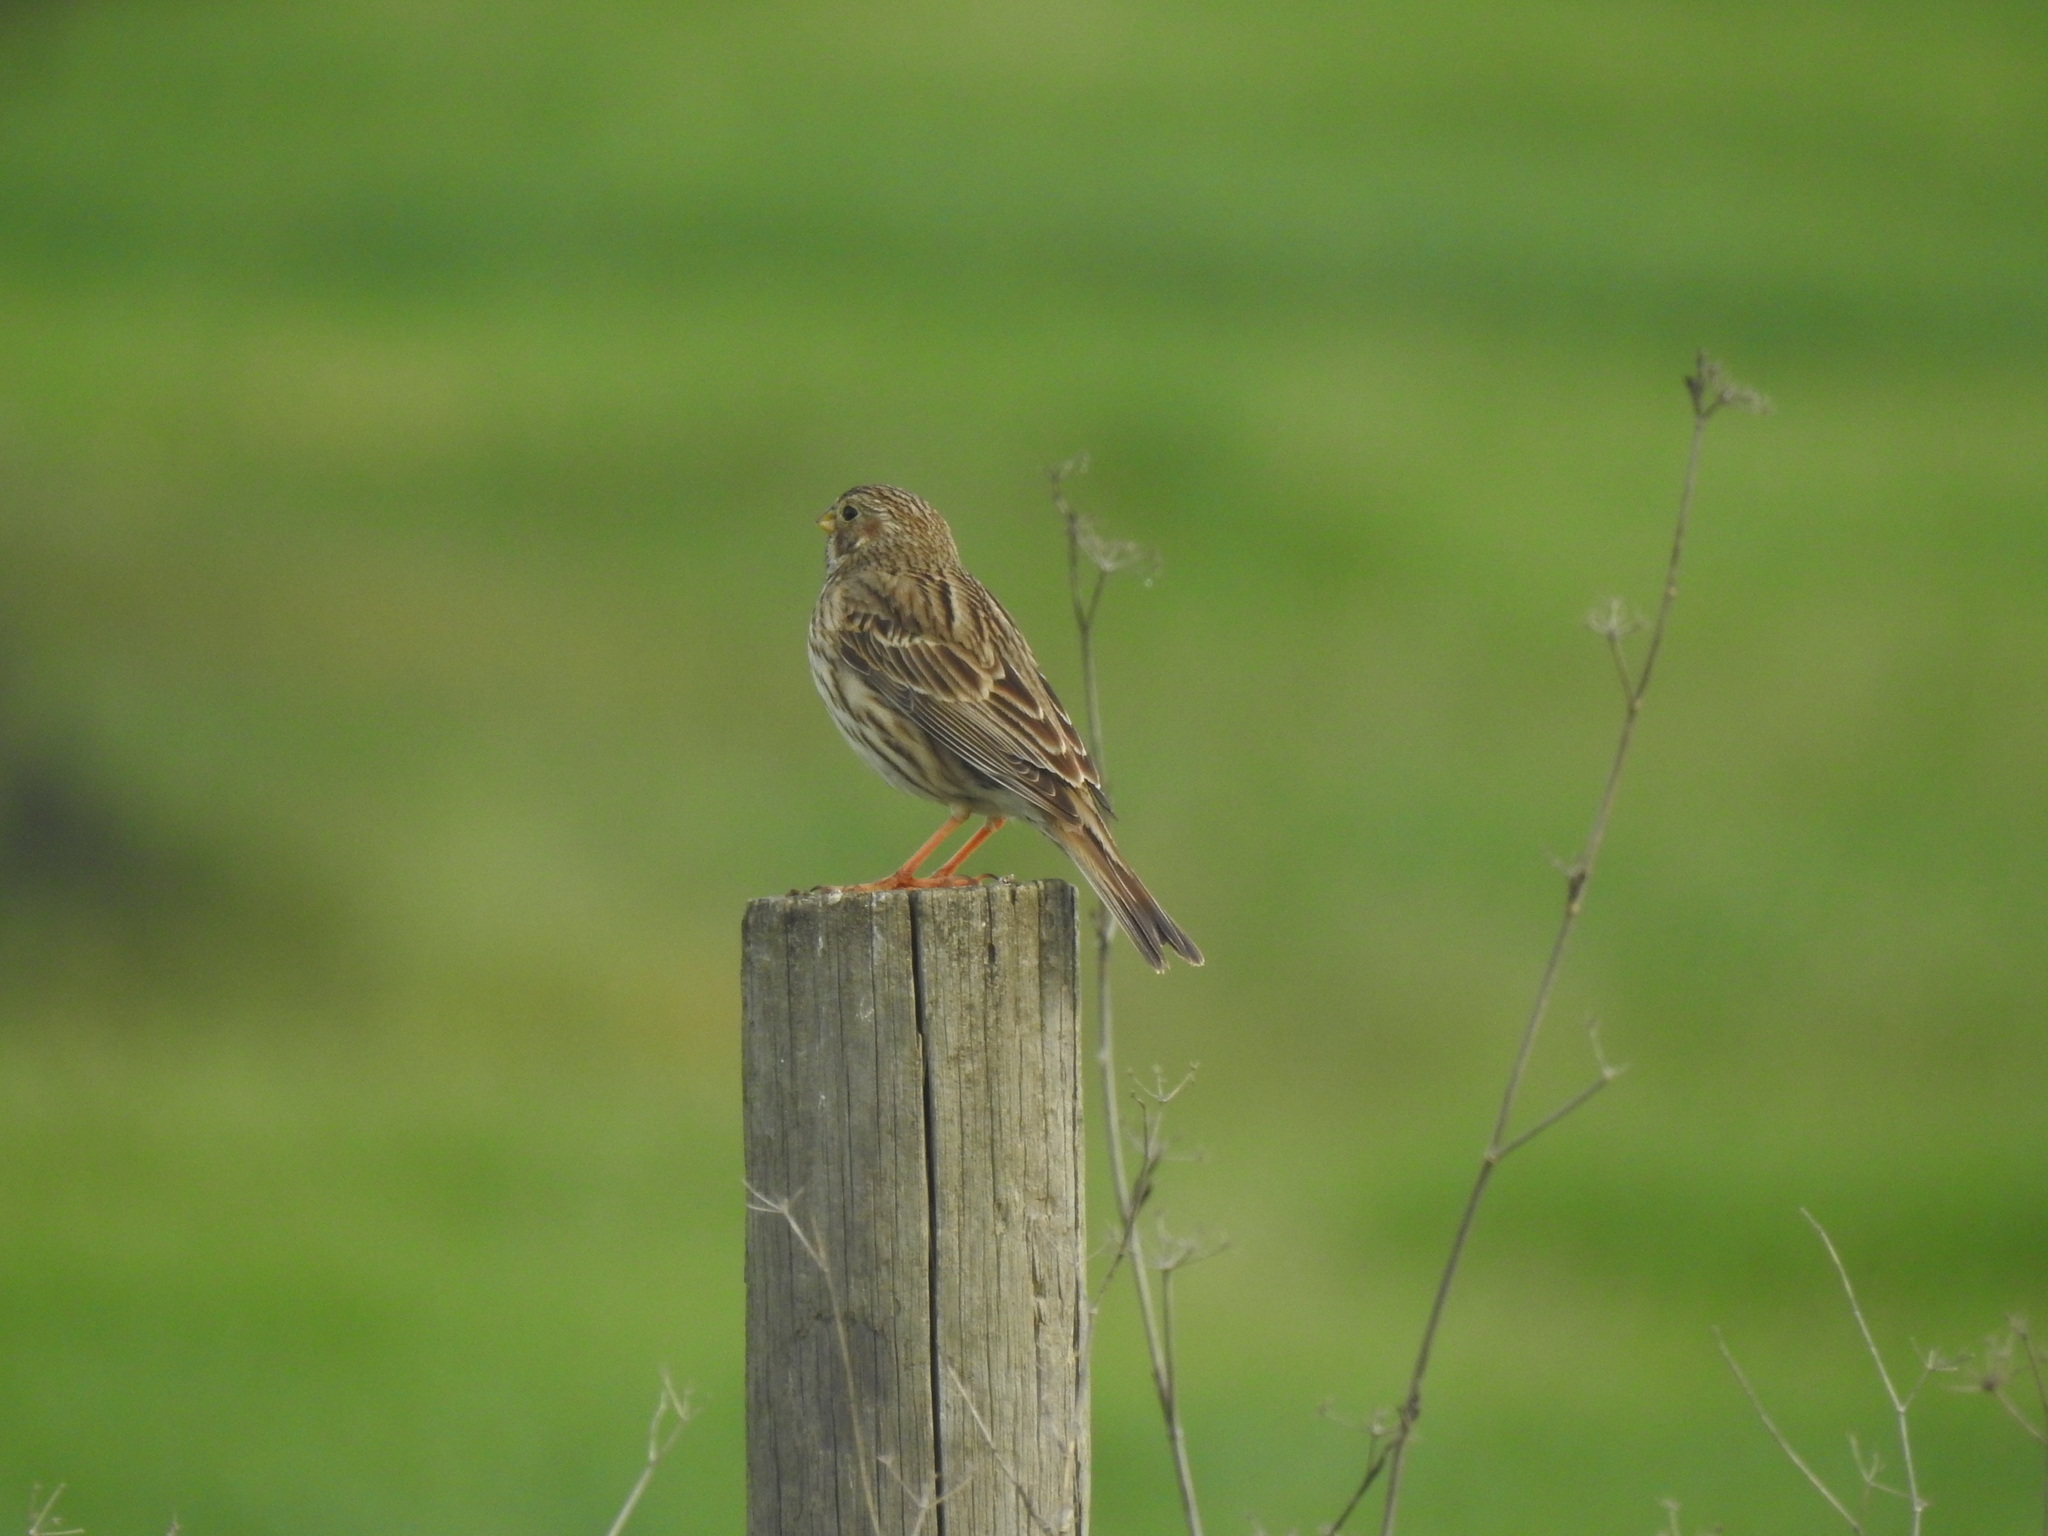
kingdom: Animalia
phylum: Chordata
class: Aves
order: Passeriformes
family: Emberizidae
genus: Emberiza
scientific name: Emberiza calandra
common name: Corn bunting
